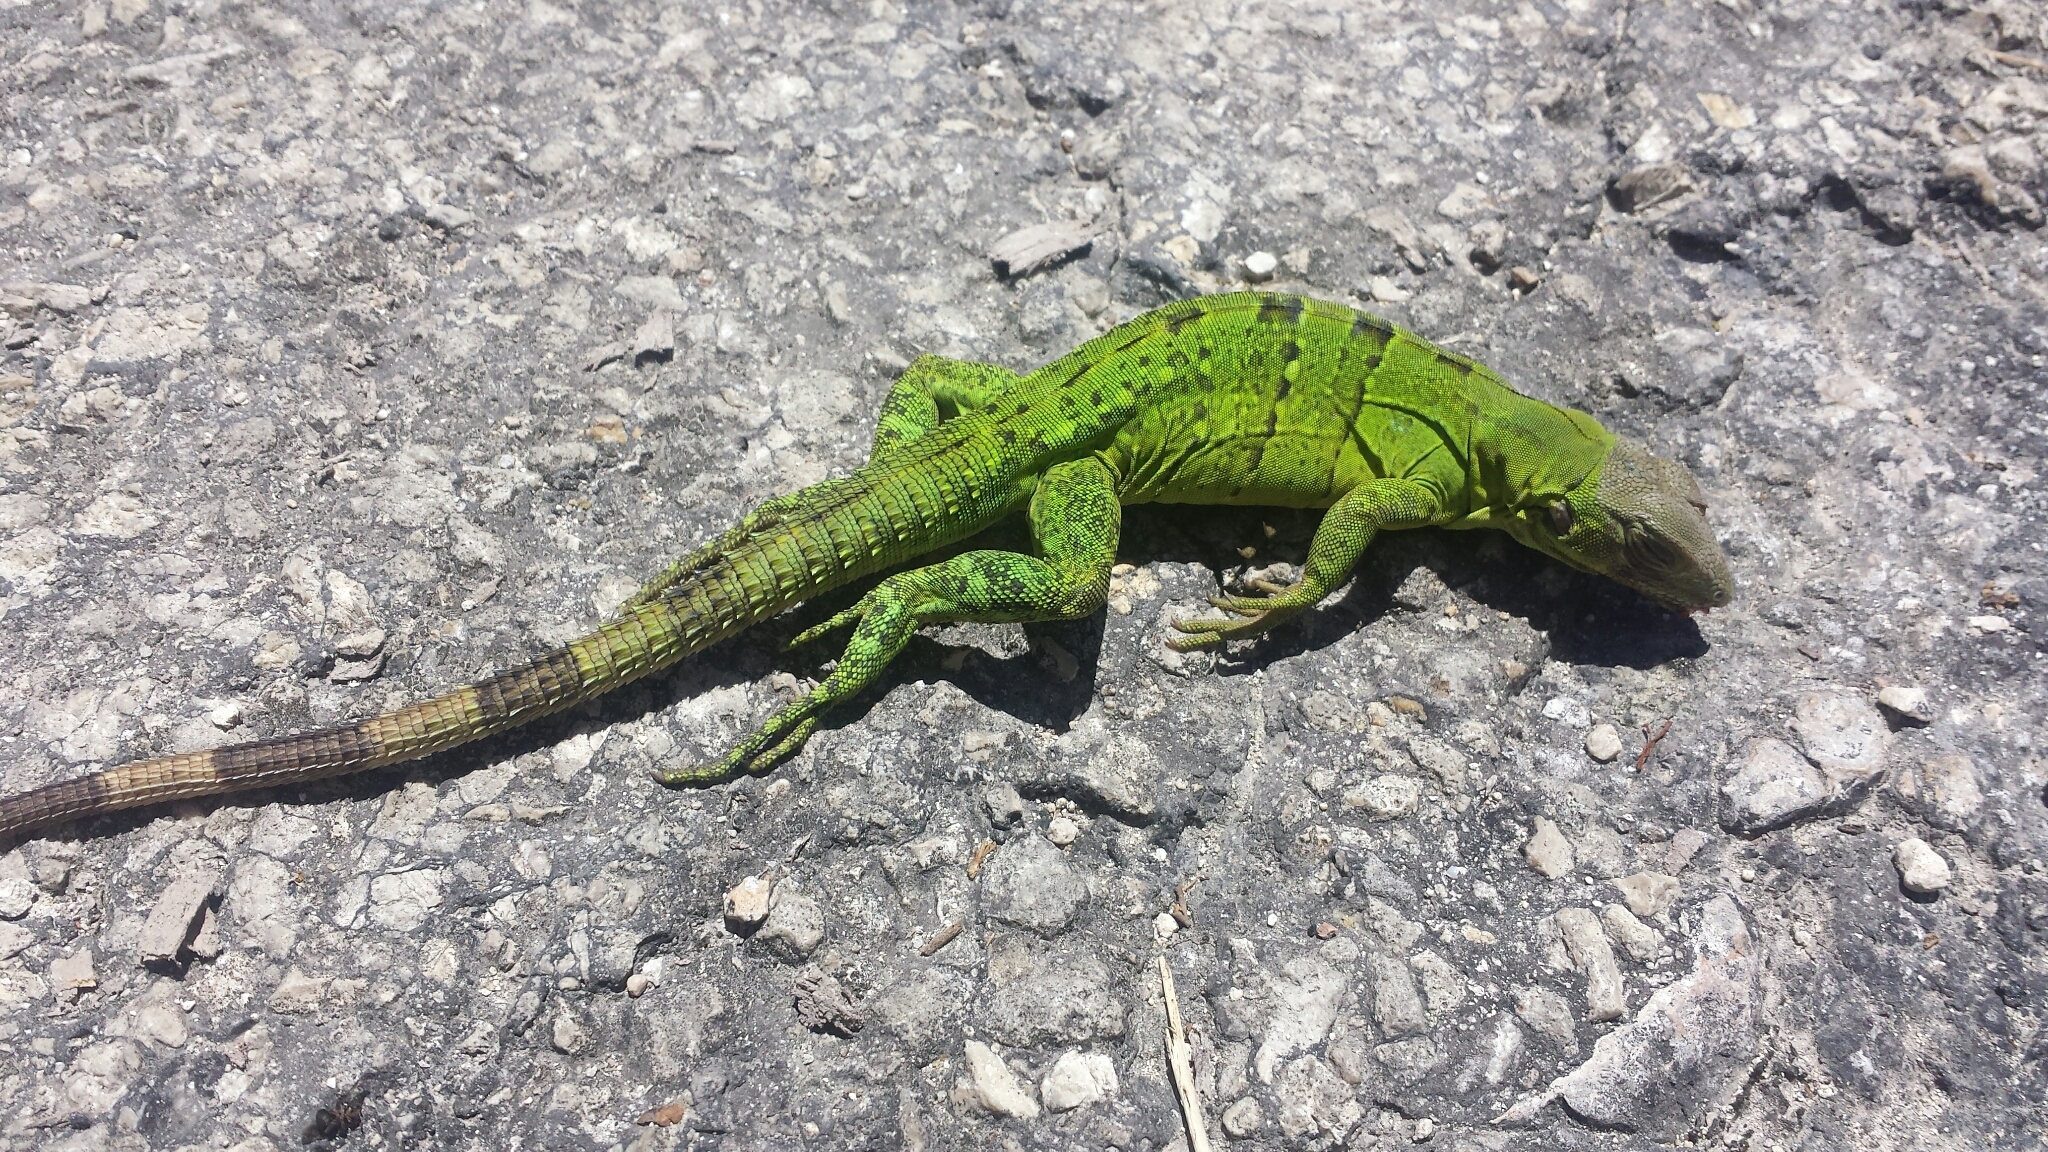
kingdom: Animalia
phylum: Chordata
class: Squamata
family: Iguanidae
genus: Ctenosaura
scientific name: Ctenosaura similis
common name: Black spiny-tailed iguana
